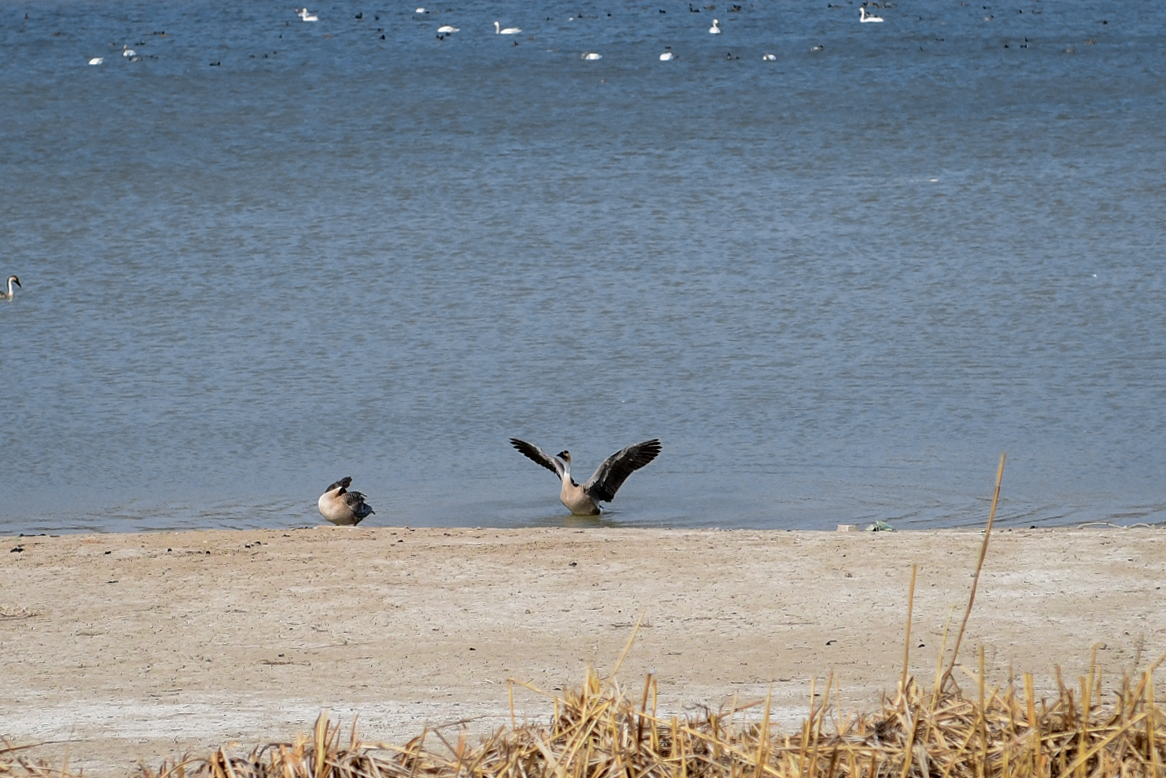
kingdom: Animalia
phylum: Chordata
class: Aves
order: Anseriformes
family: Anatidae
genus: Anser
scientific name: Anser cygnoides
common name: Swan goose
